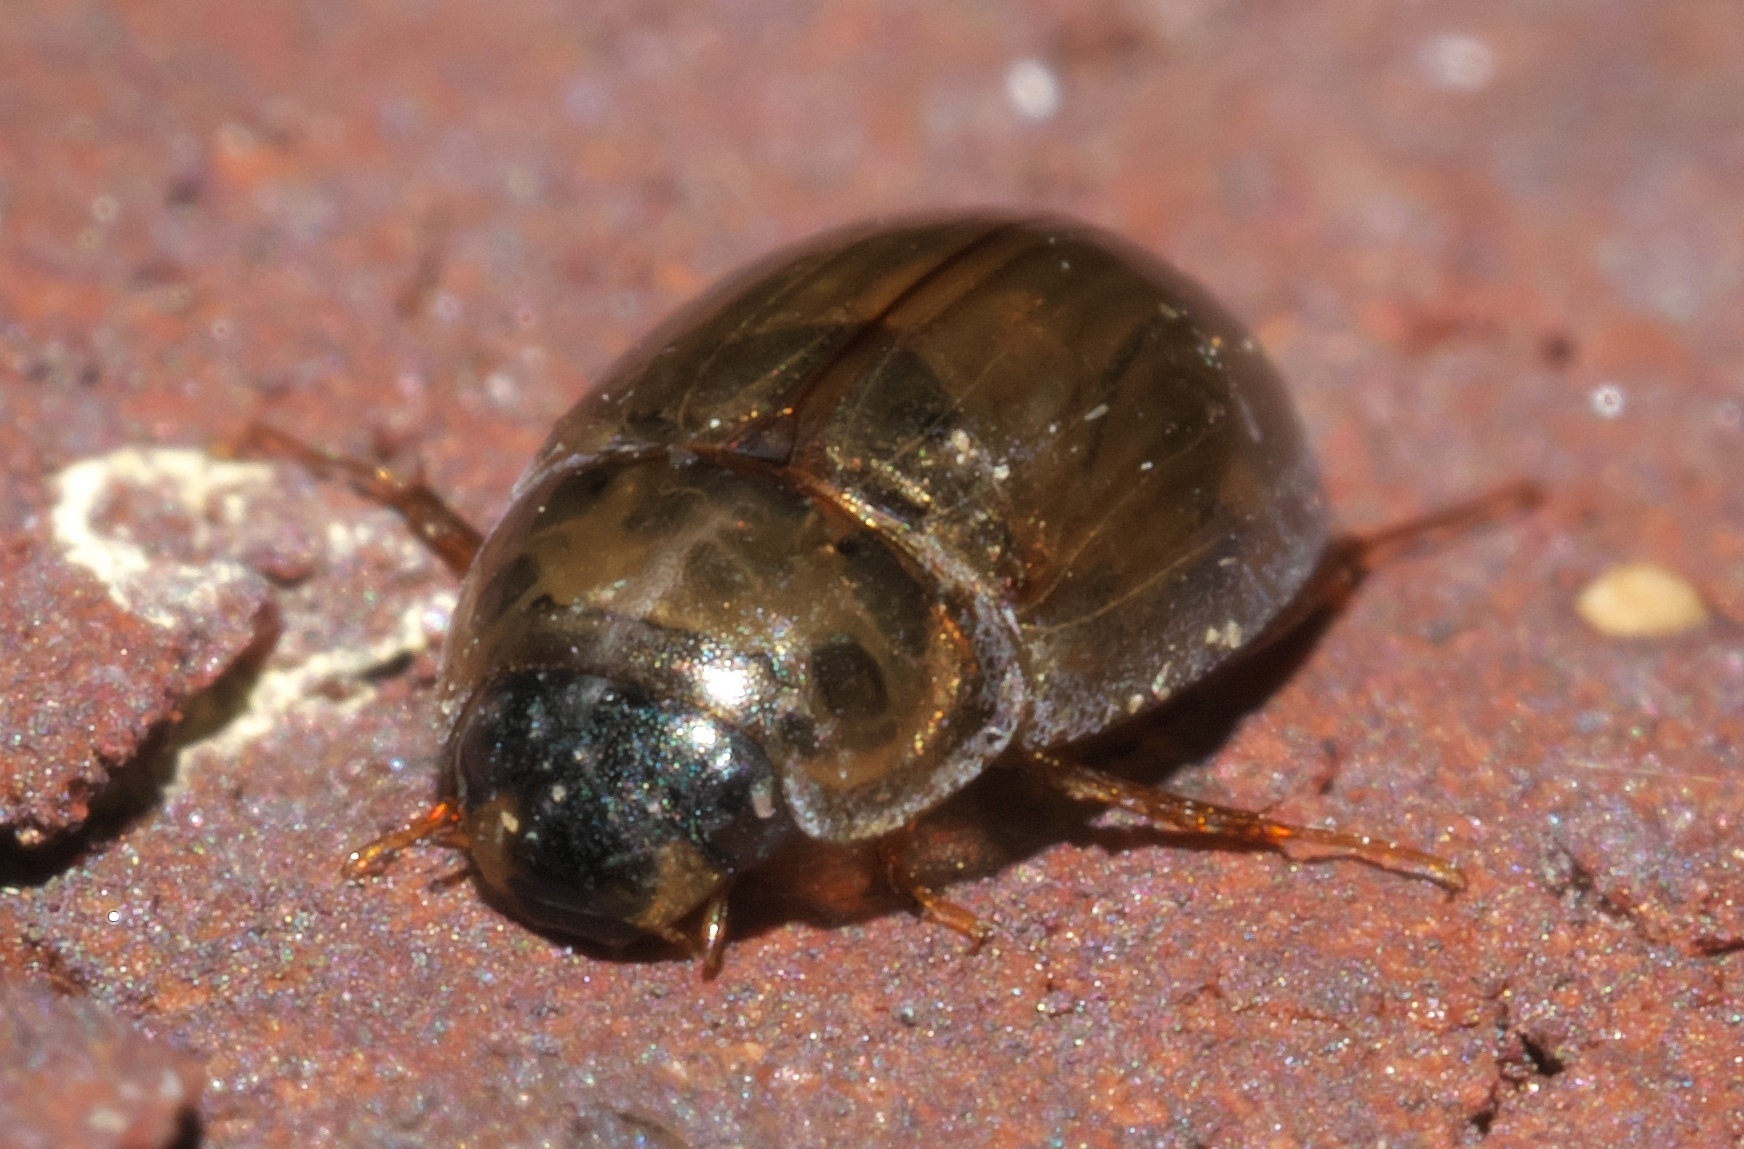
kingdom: Animalia
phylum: Arthropoda
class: Insecta
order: Coleoptera
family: Hydrophilidae
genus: Enochrus
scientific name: Enochrus
